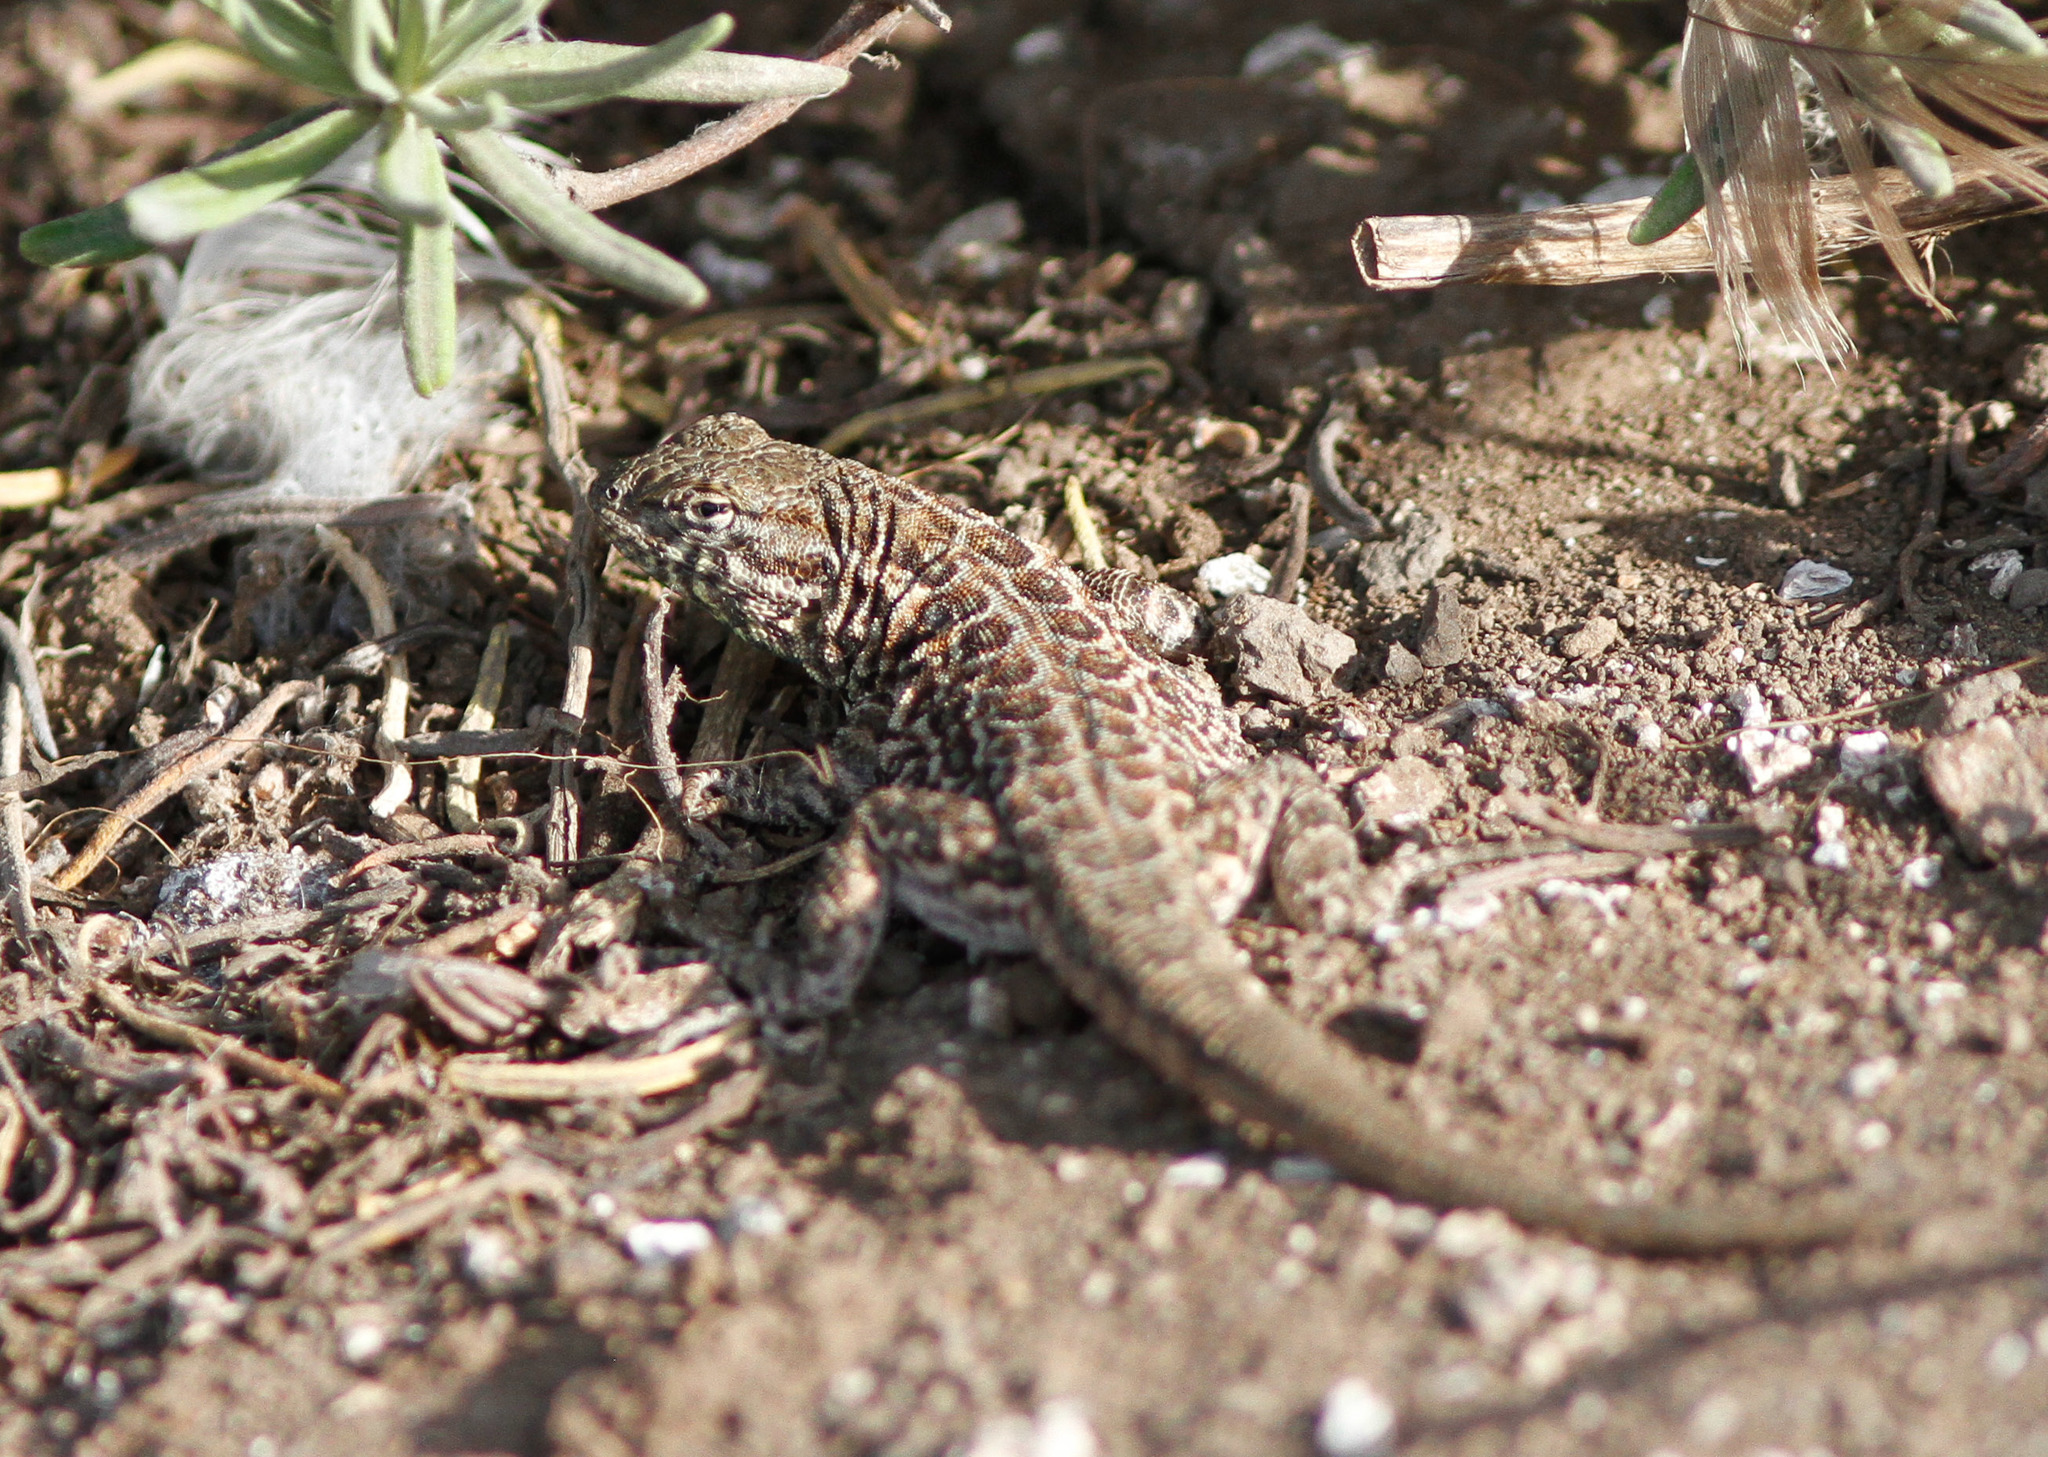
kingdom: Animalia
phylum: Chordata
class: Squamata
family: Phrynosomatidae
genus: Uta
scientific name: Uta stansburiana
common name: Side-blotched lizard
